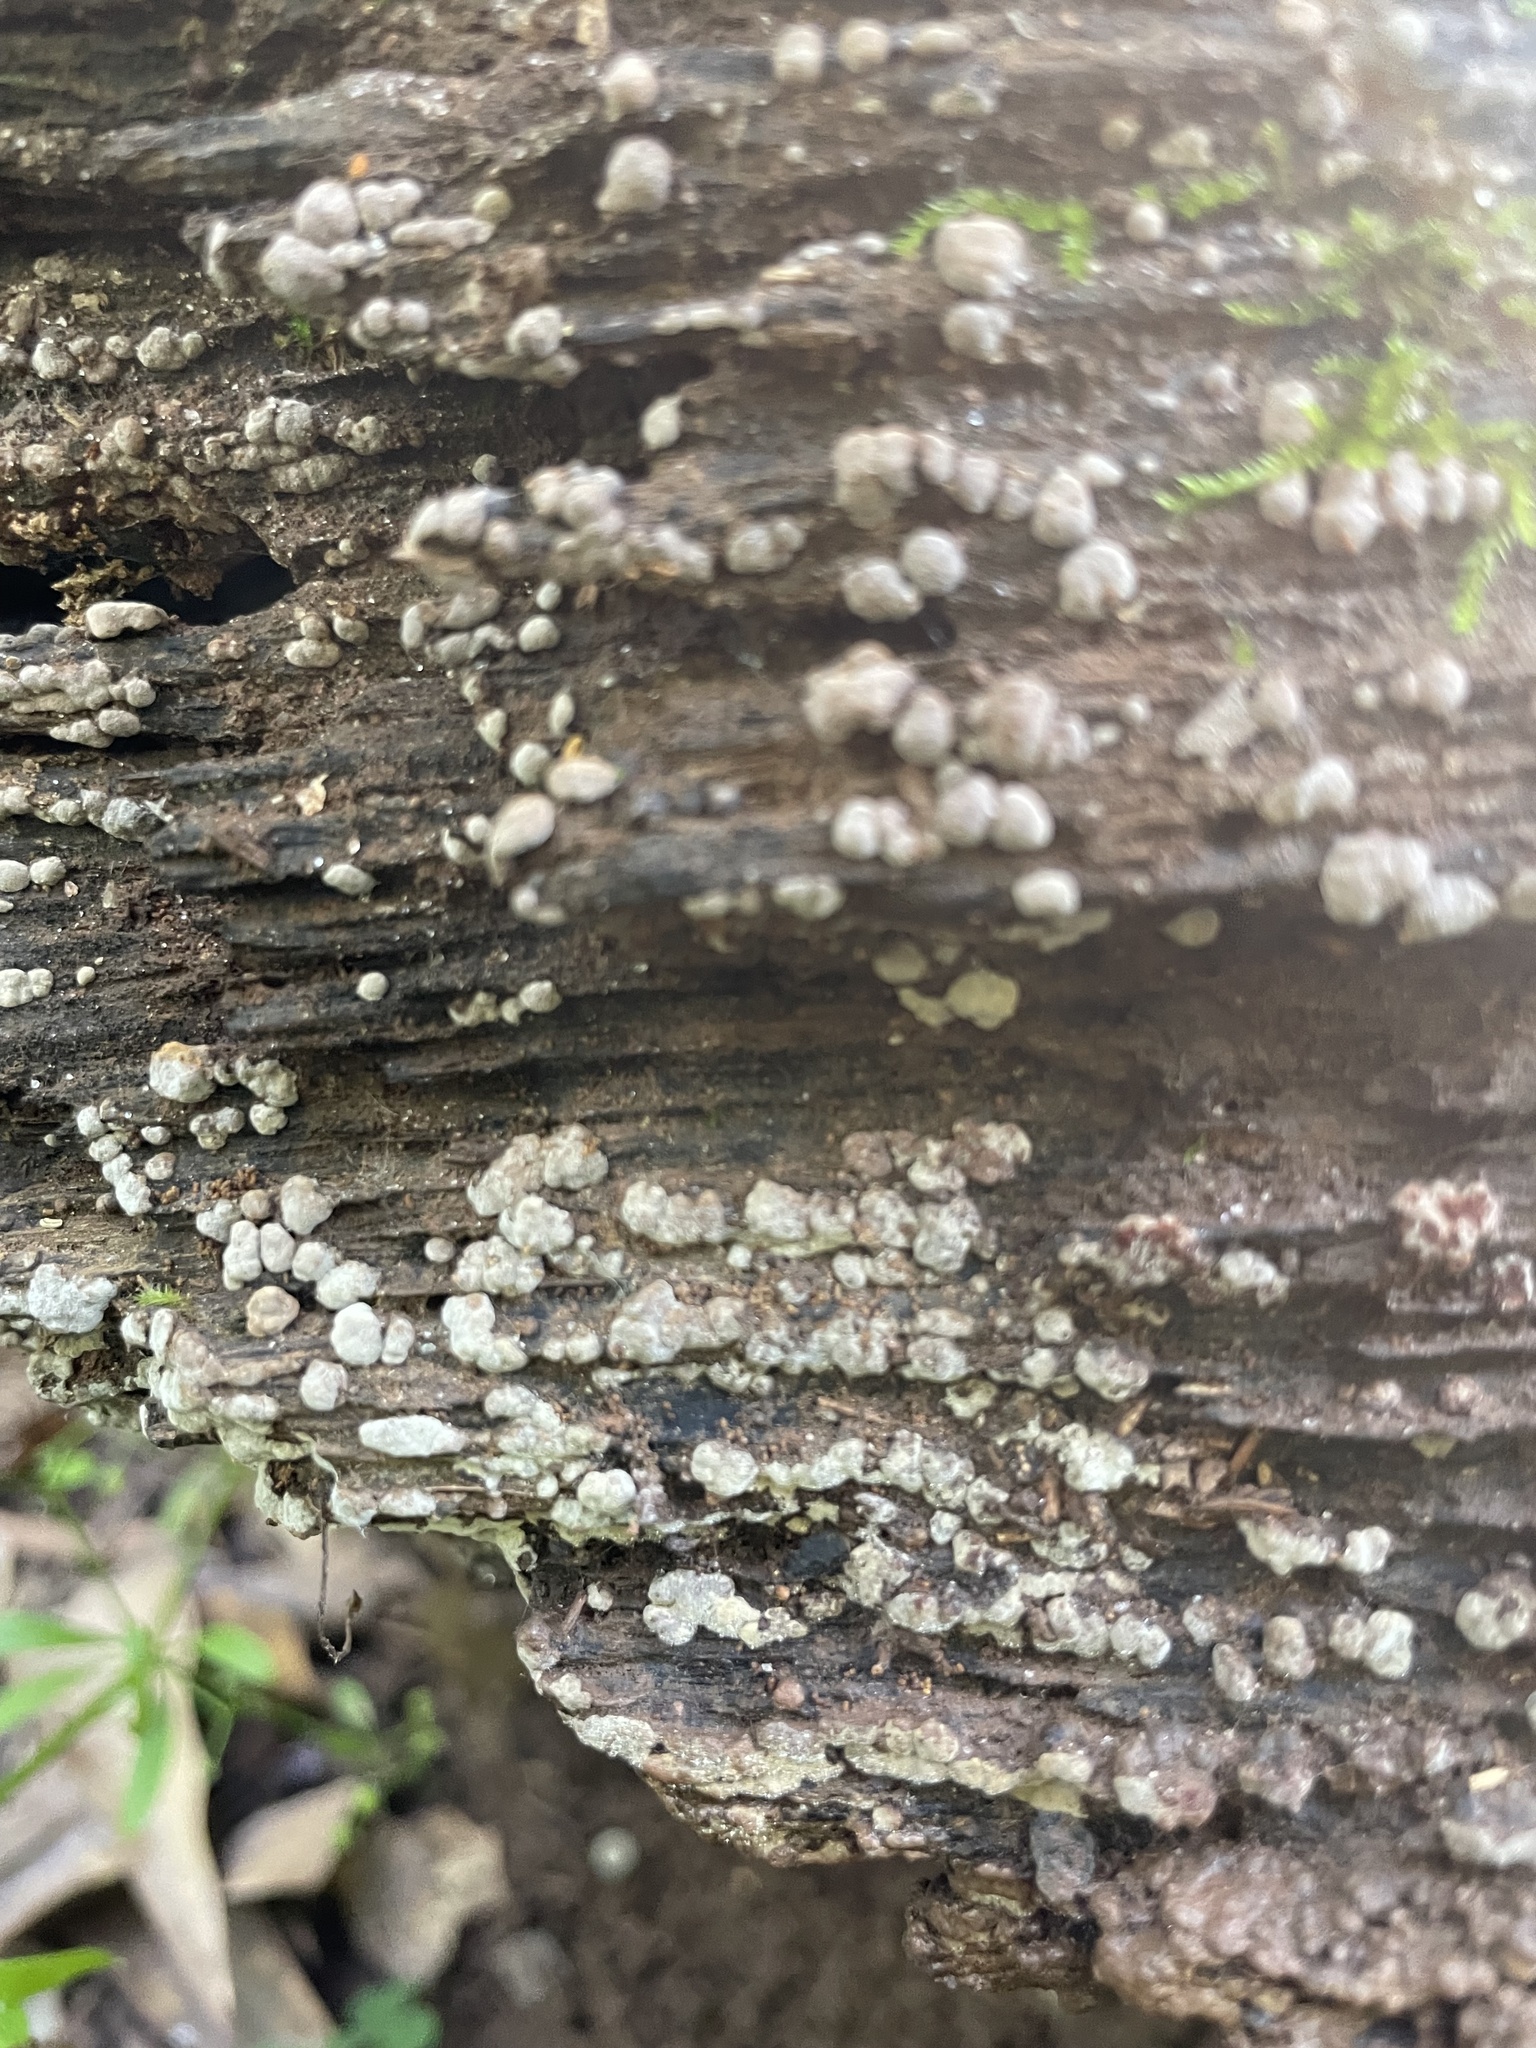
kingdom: Fungi
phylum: Basidiomycota
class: Agaricomycetes
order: Russulales
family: Stereaceae
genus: Xylobolus
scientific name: Xylobolus frustulatus
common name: Ceramic parchment
